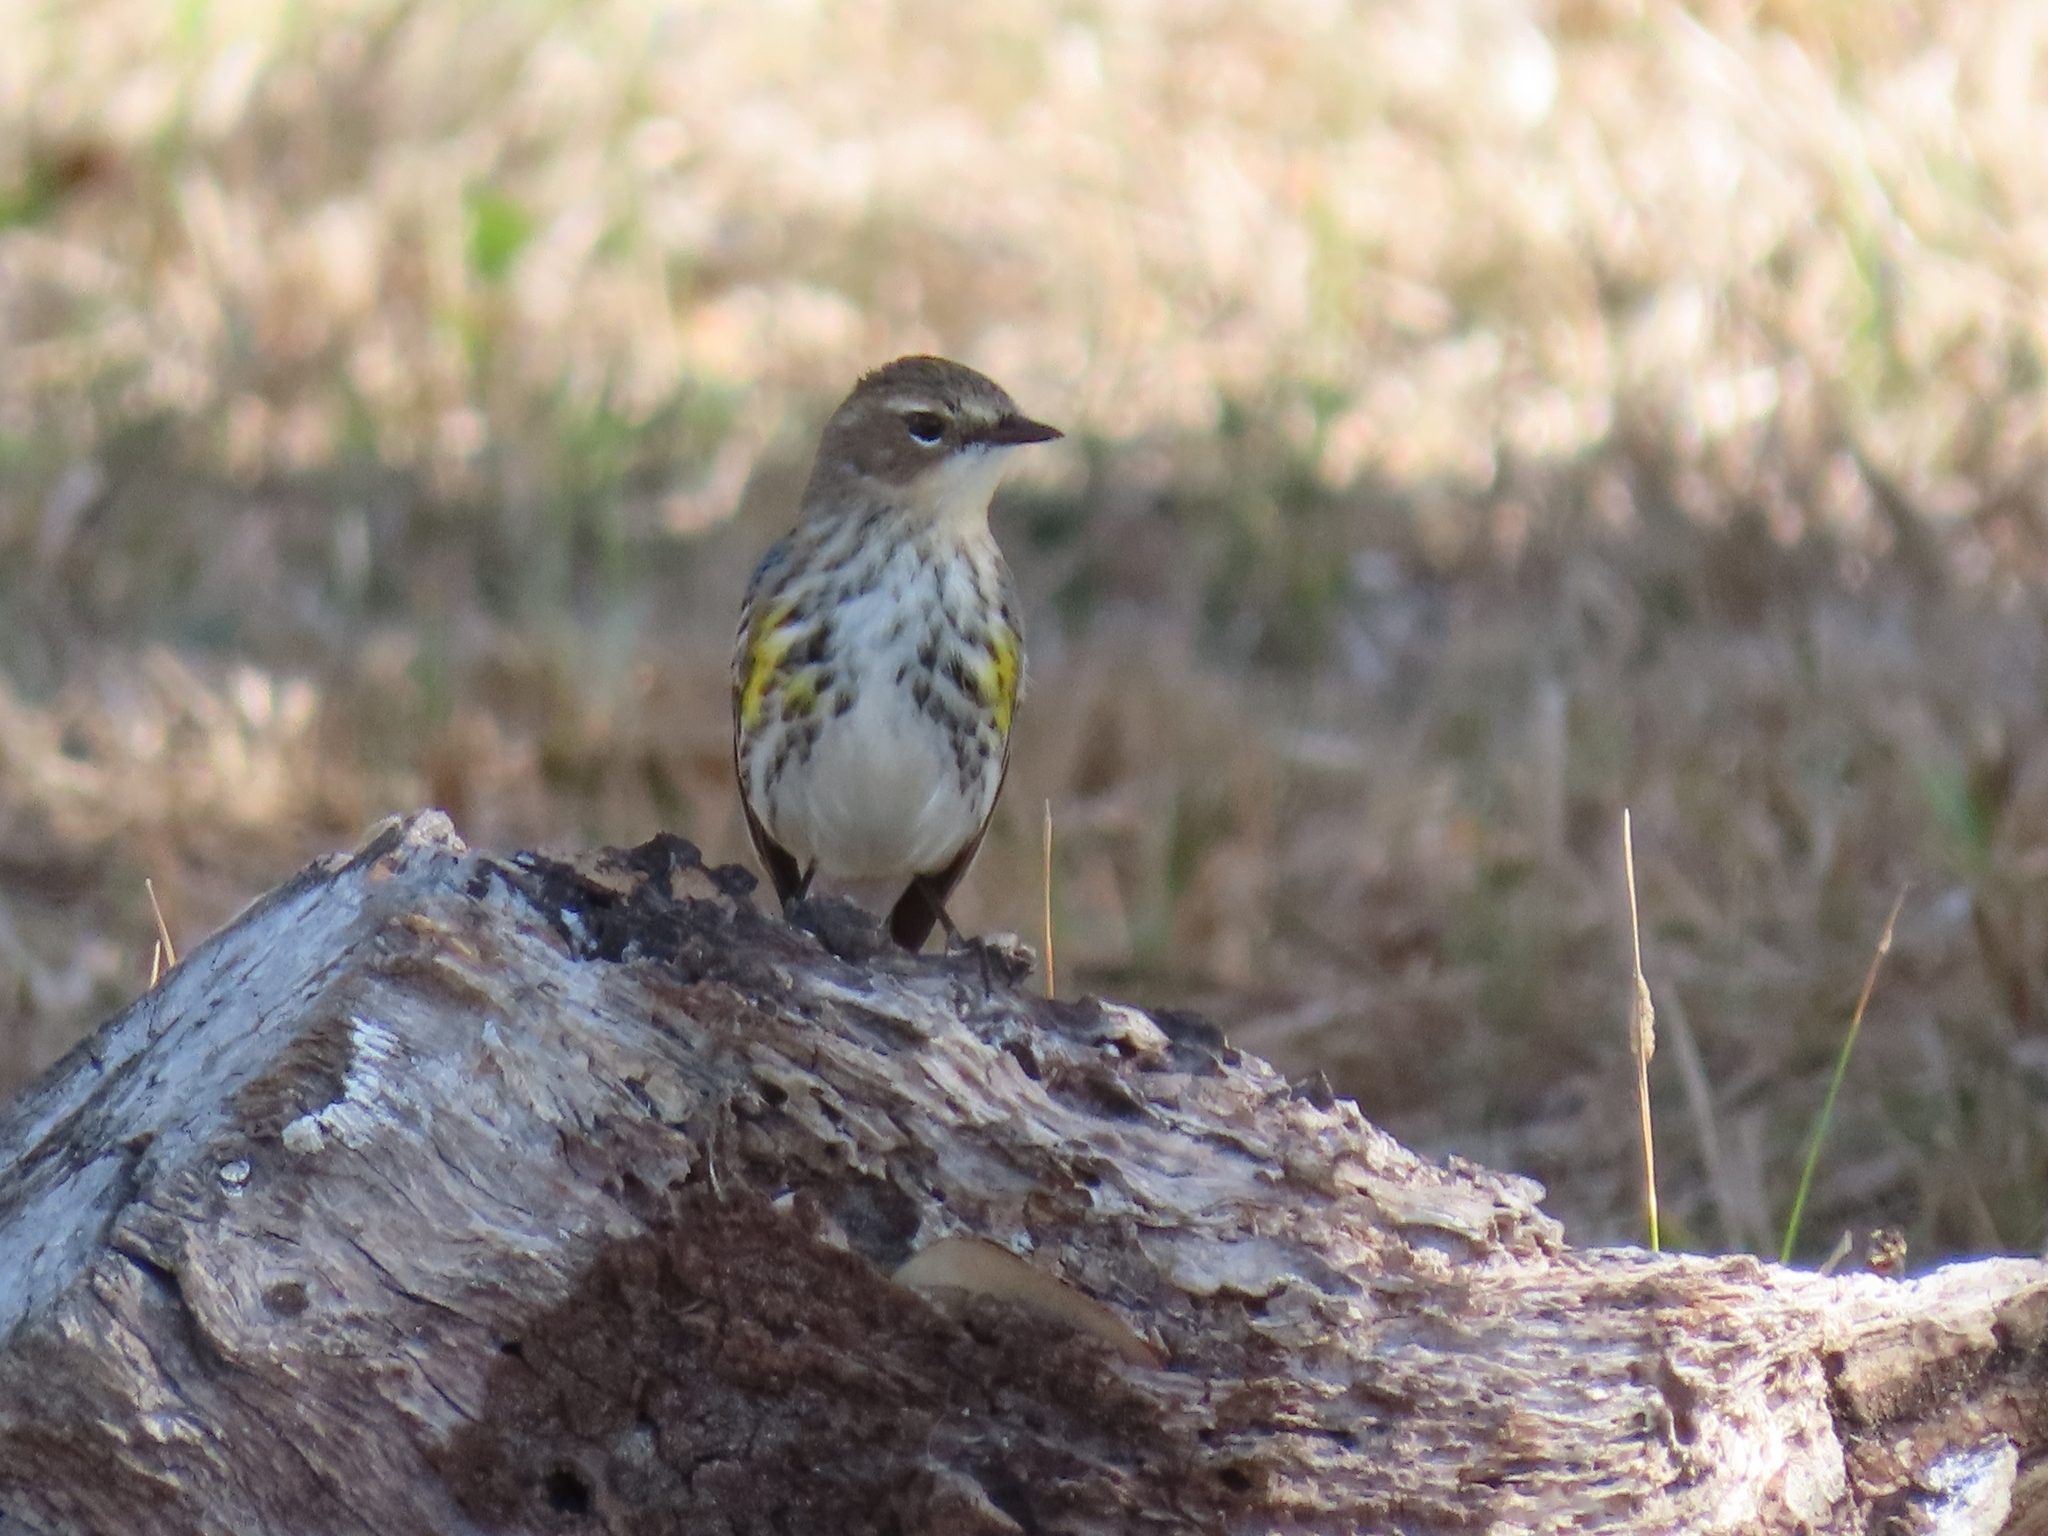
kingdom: Animalia
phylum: Chordata
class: Aves
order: Passeriformes
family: Parulidae
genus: Setophaga
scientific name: Setophaga coronata
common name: Myrtle warbler
